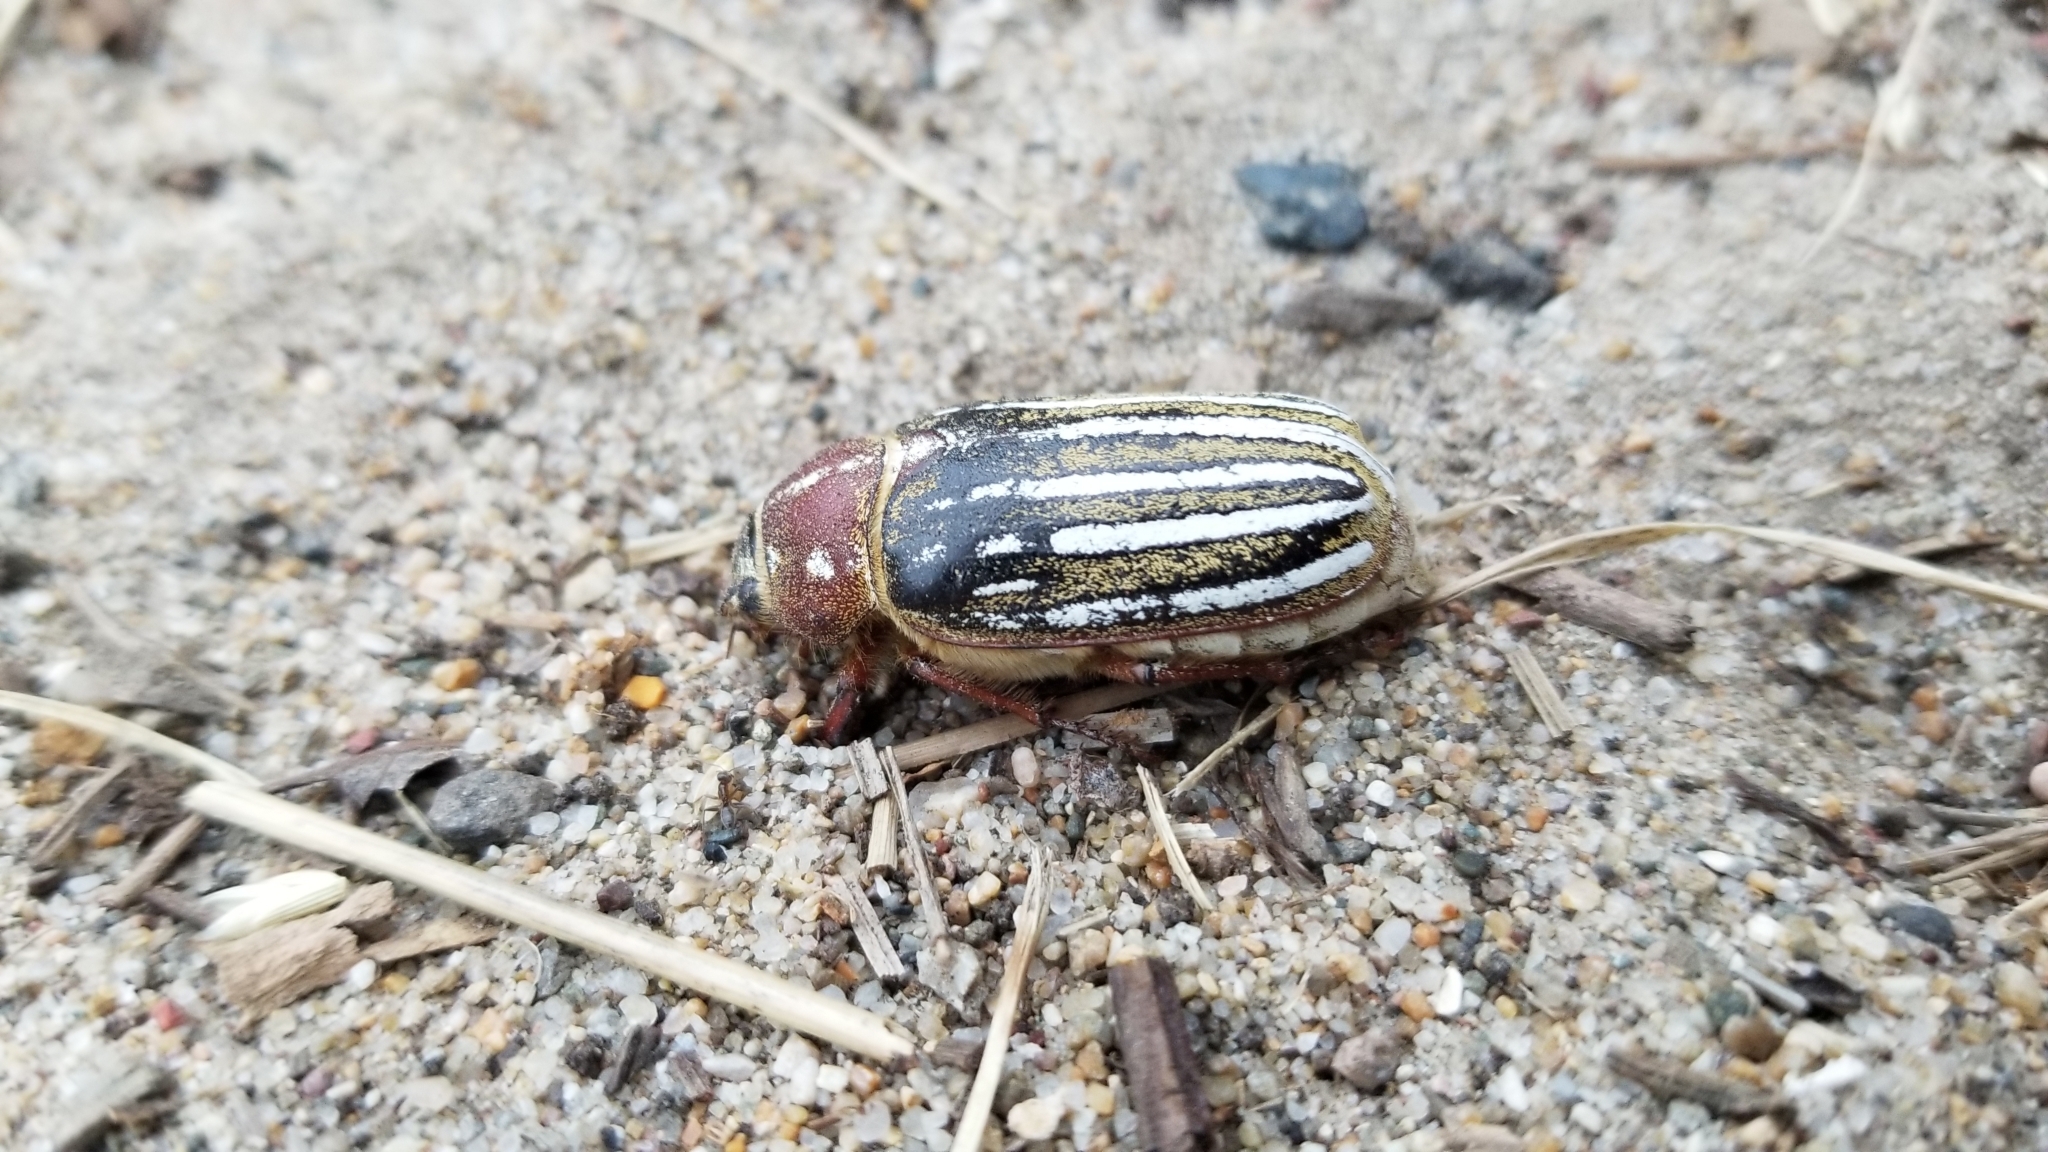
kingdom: Animalia
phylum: Arthropoda
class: Insecta
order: Coleoptera
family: Scarabaeidae
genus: Polyphylla
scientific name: Polyphylla decemlineata
